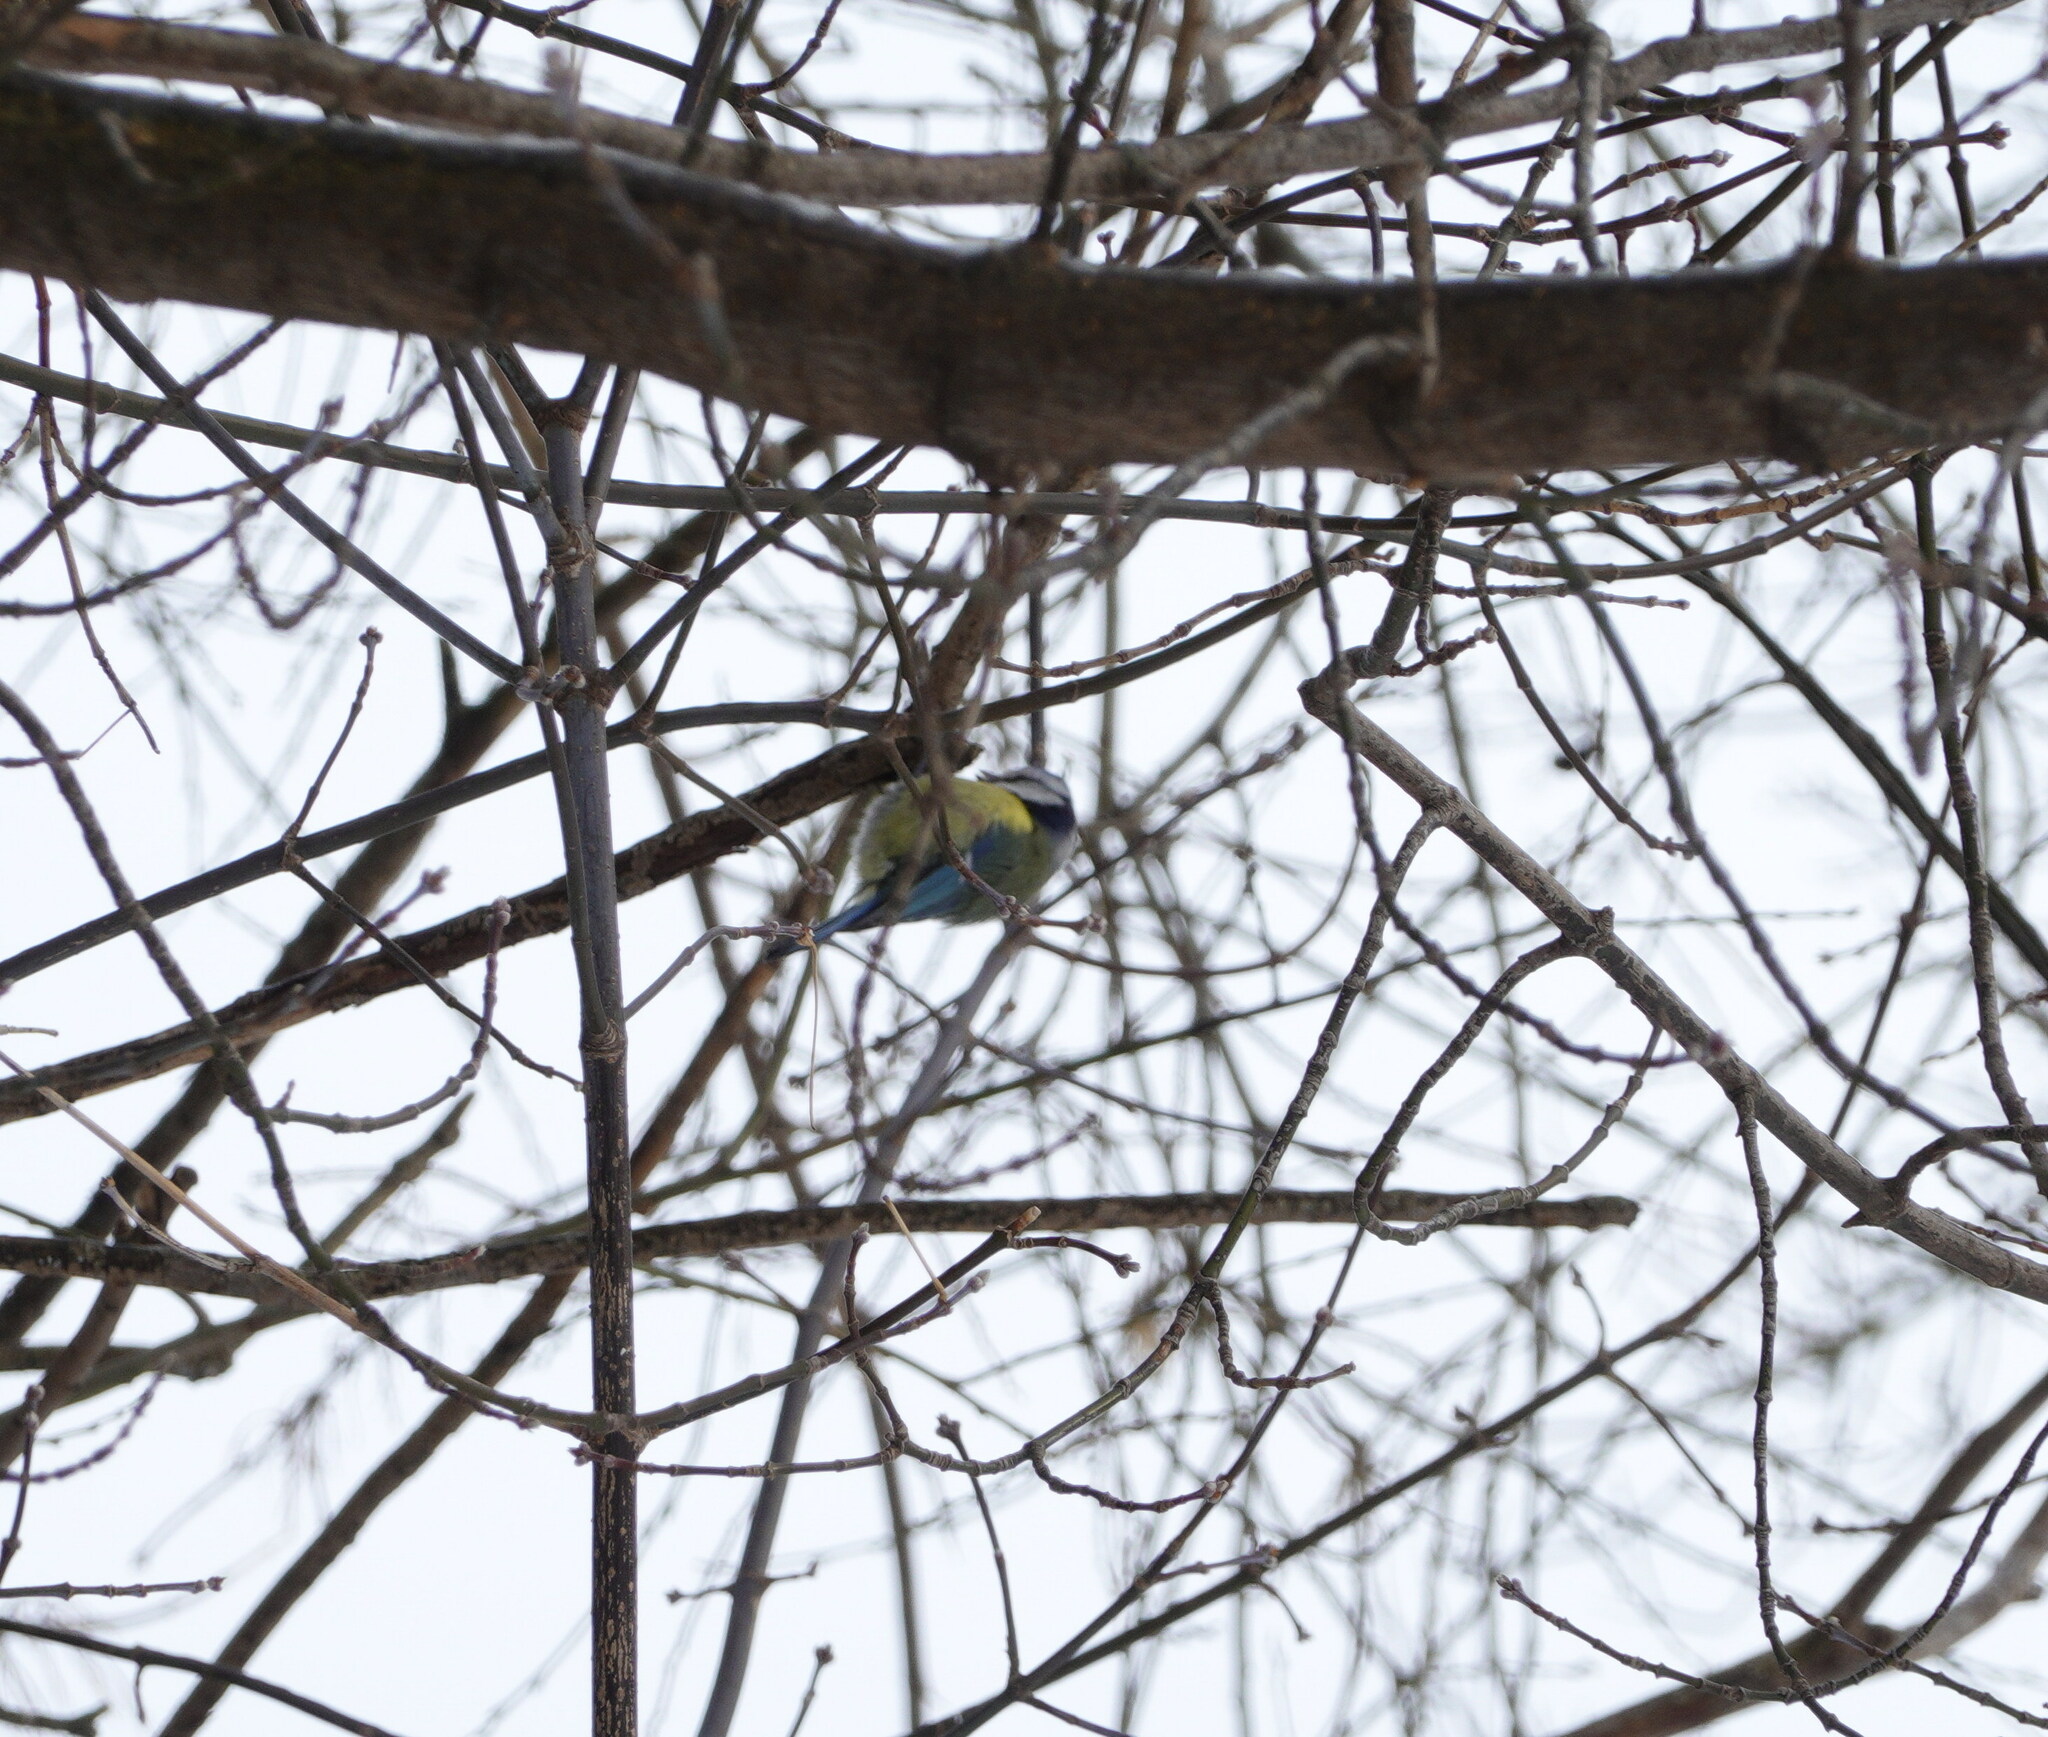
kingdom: Animalia
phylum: Chordata
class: Aves
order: Passeriformes
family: Paridae
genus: Cyanistes
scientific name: Cyanistes caeruleus
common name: Eurasian blue tit
